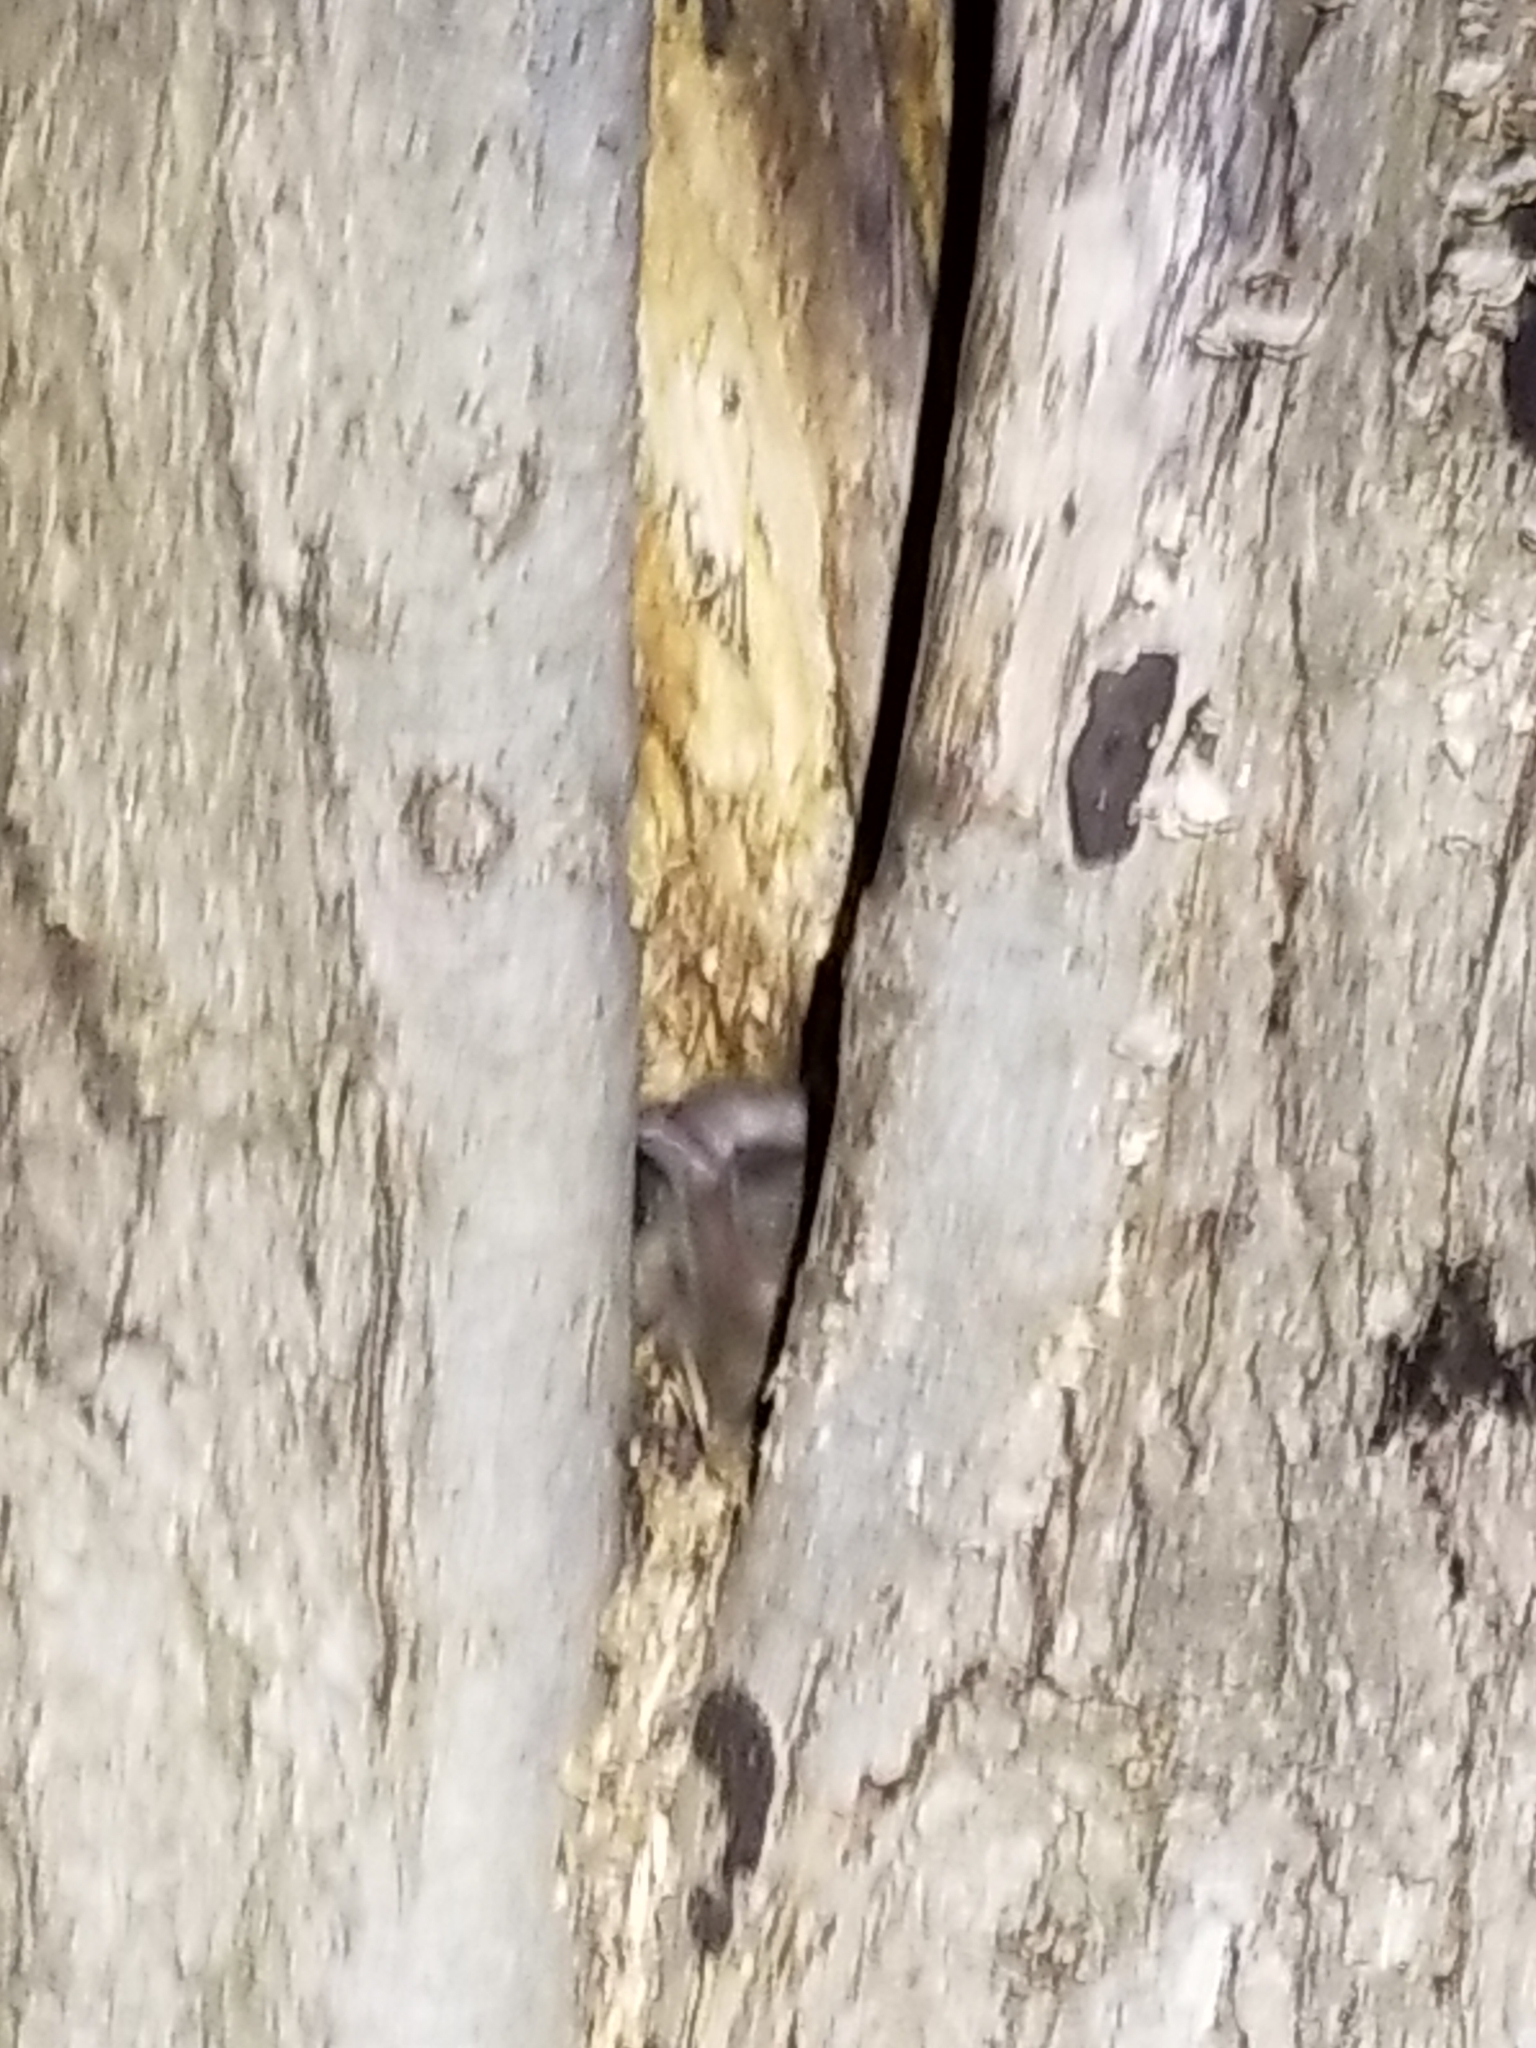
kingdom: Animalia
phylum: Chordata
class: Mammalia
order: Carnivora
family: Procyonidae
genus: Procyon
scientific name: Procyon lotor
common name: Raccoon
